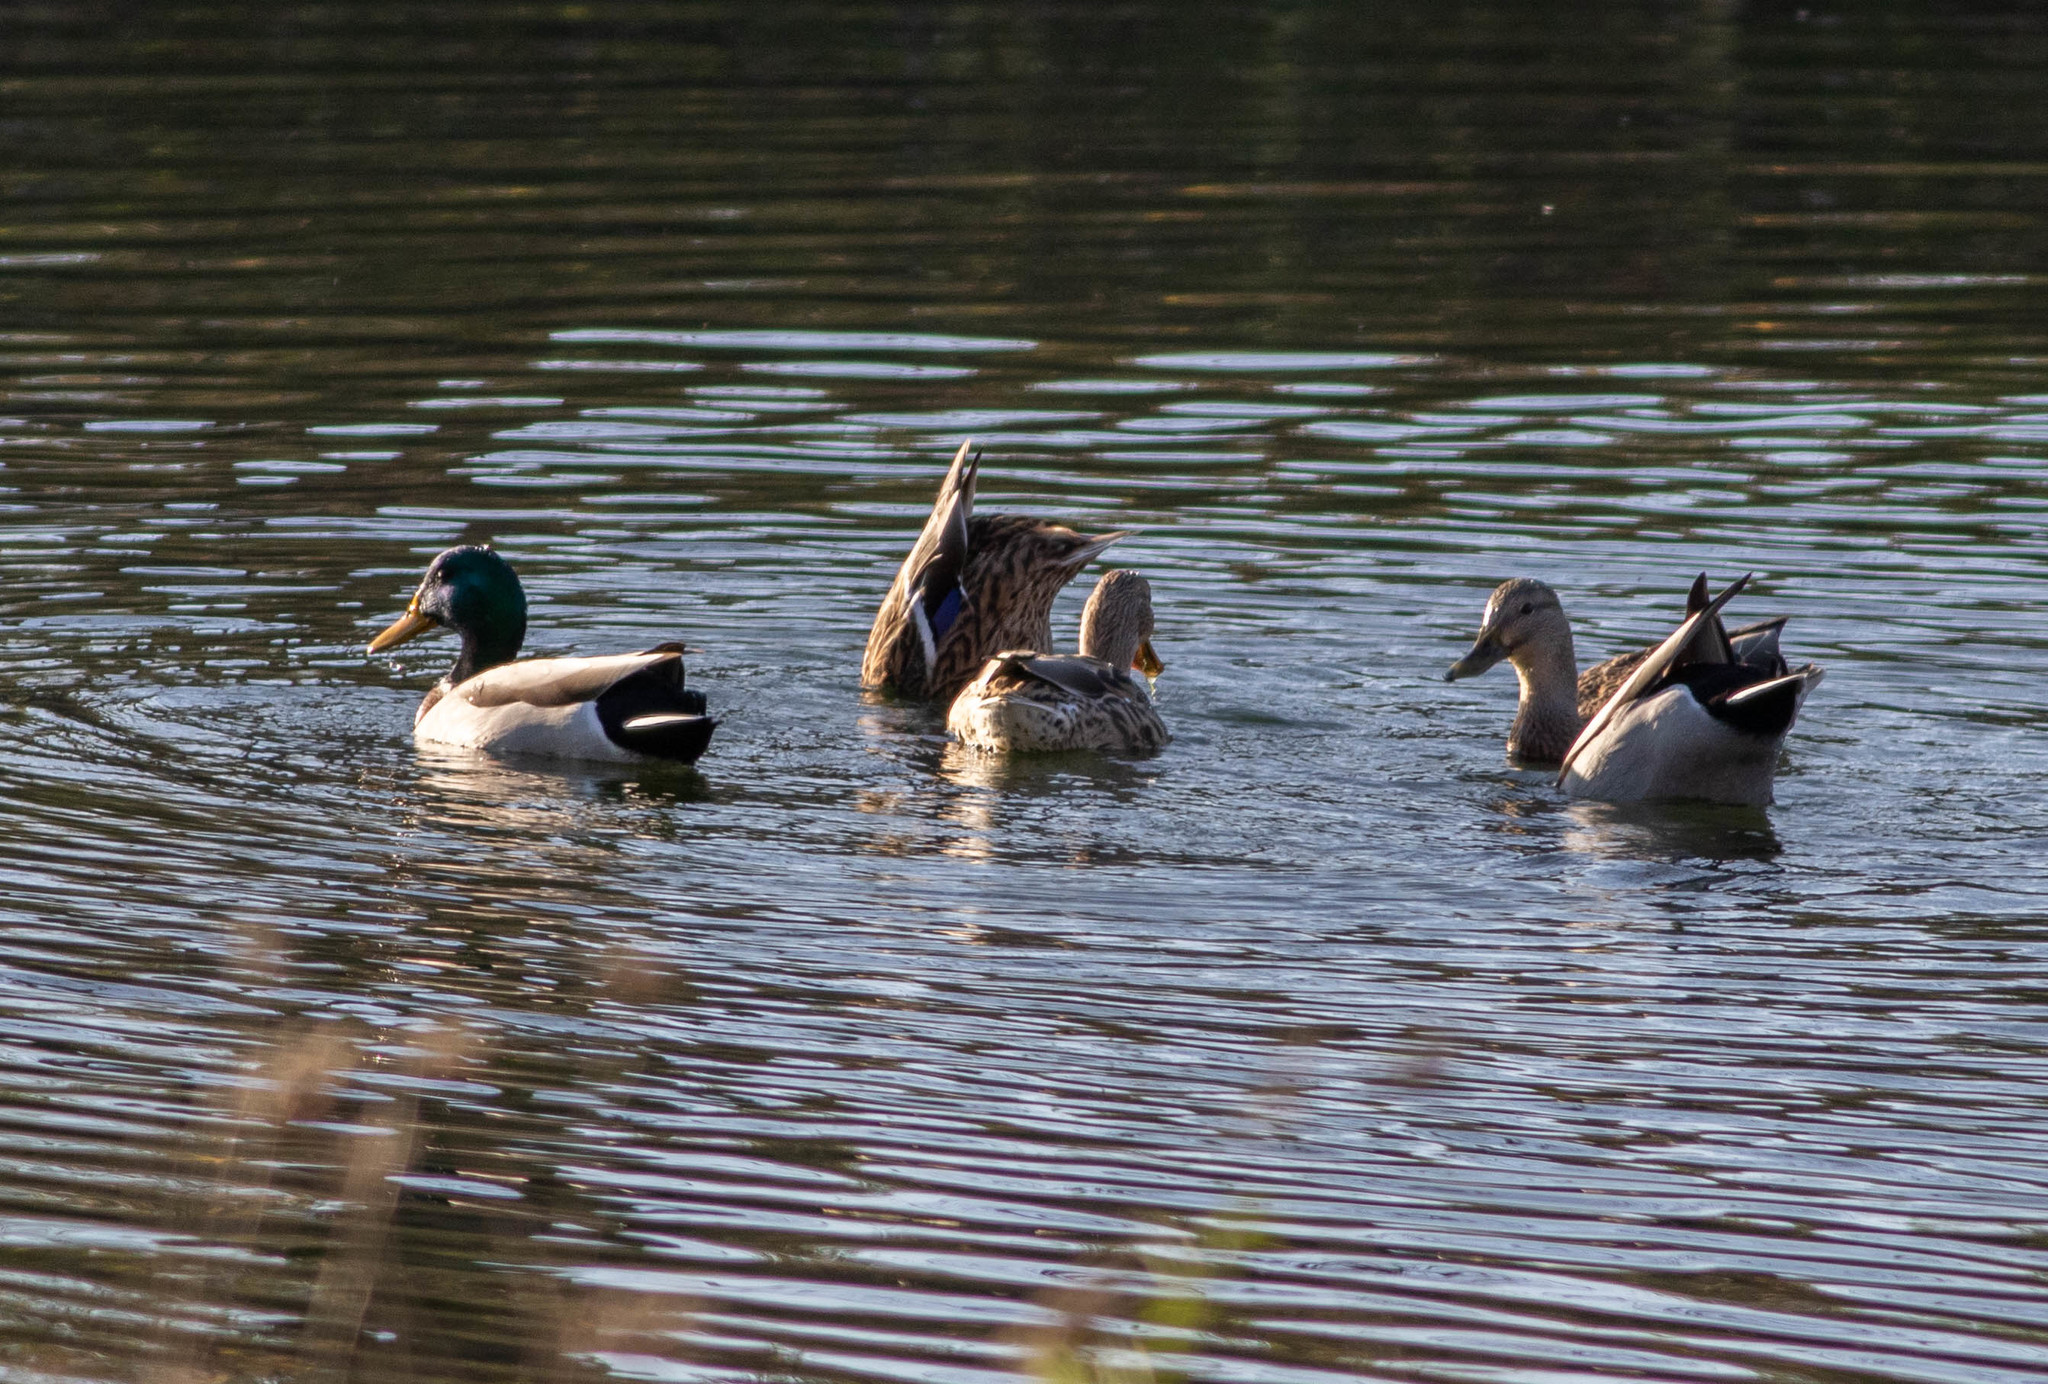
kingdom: Animalia
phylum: Chordata
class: Aves
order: Anseriformes
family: Anatidae
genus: Anas
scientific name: Anas platyrhynchos
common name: Mallard
